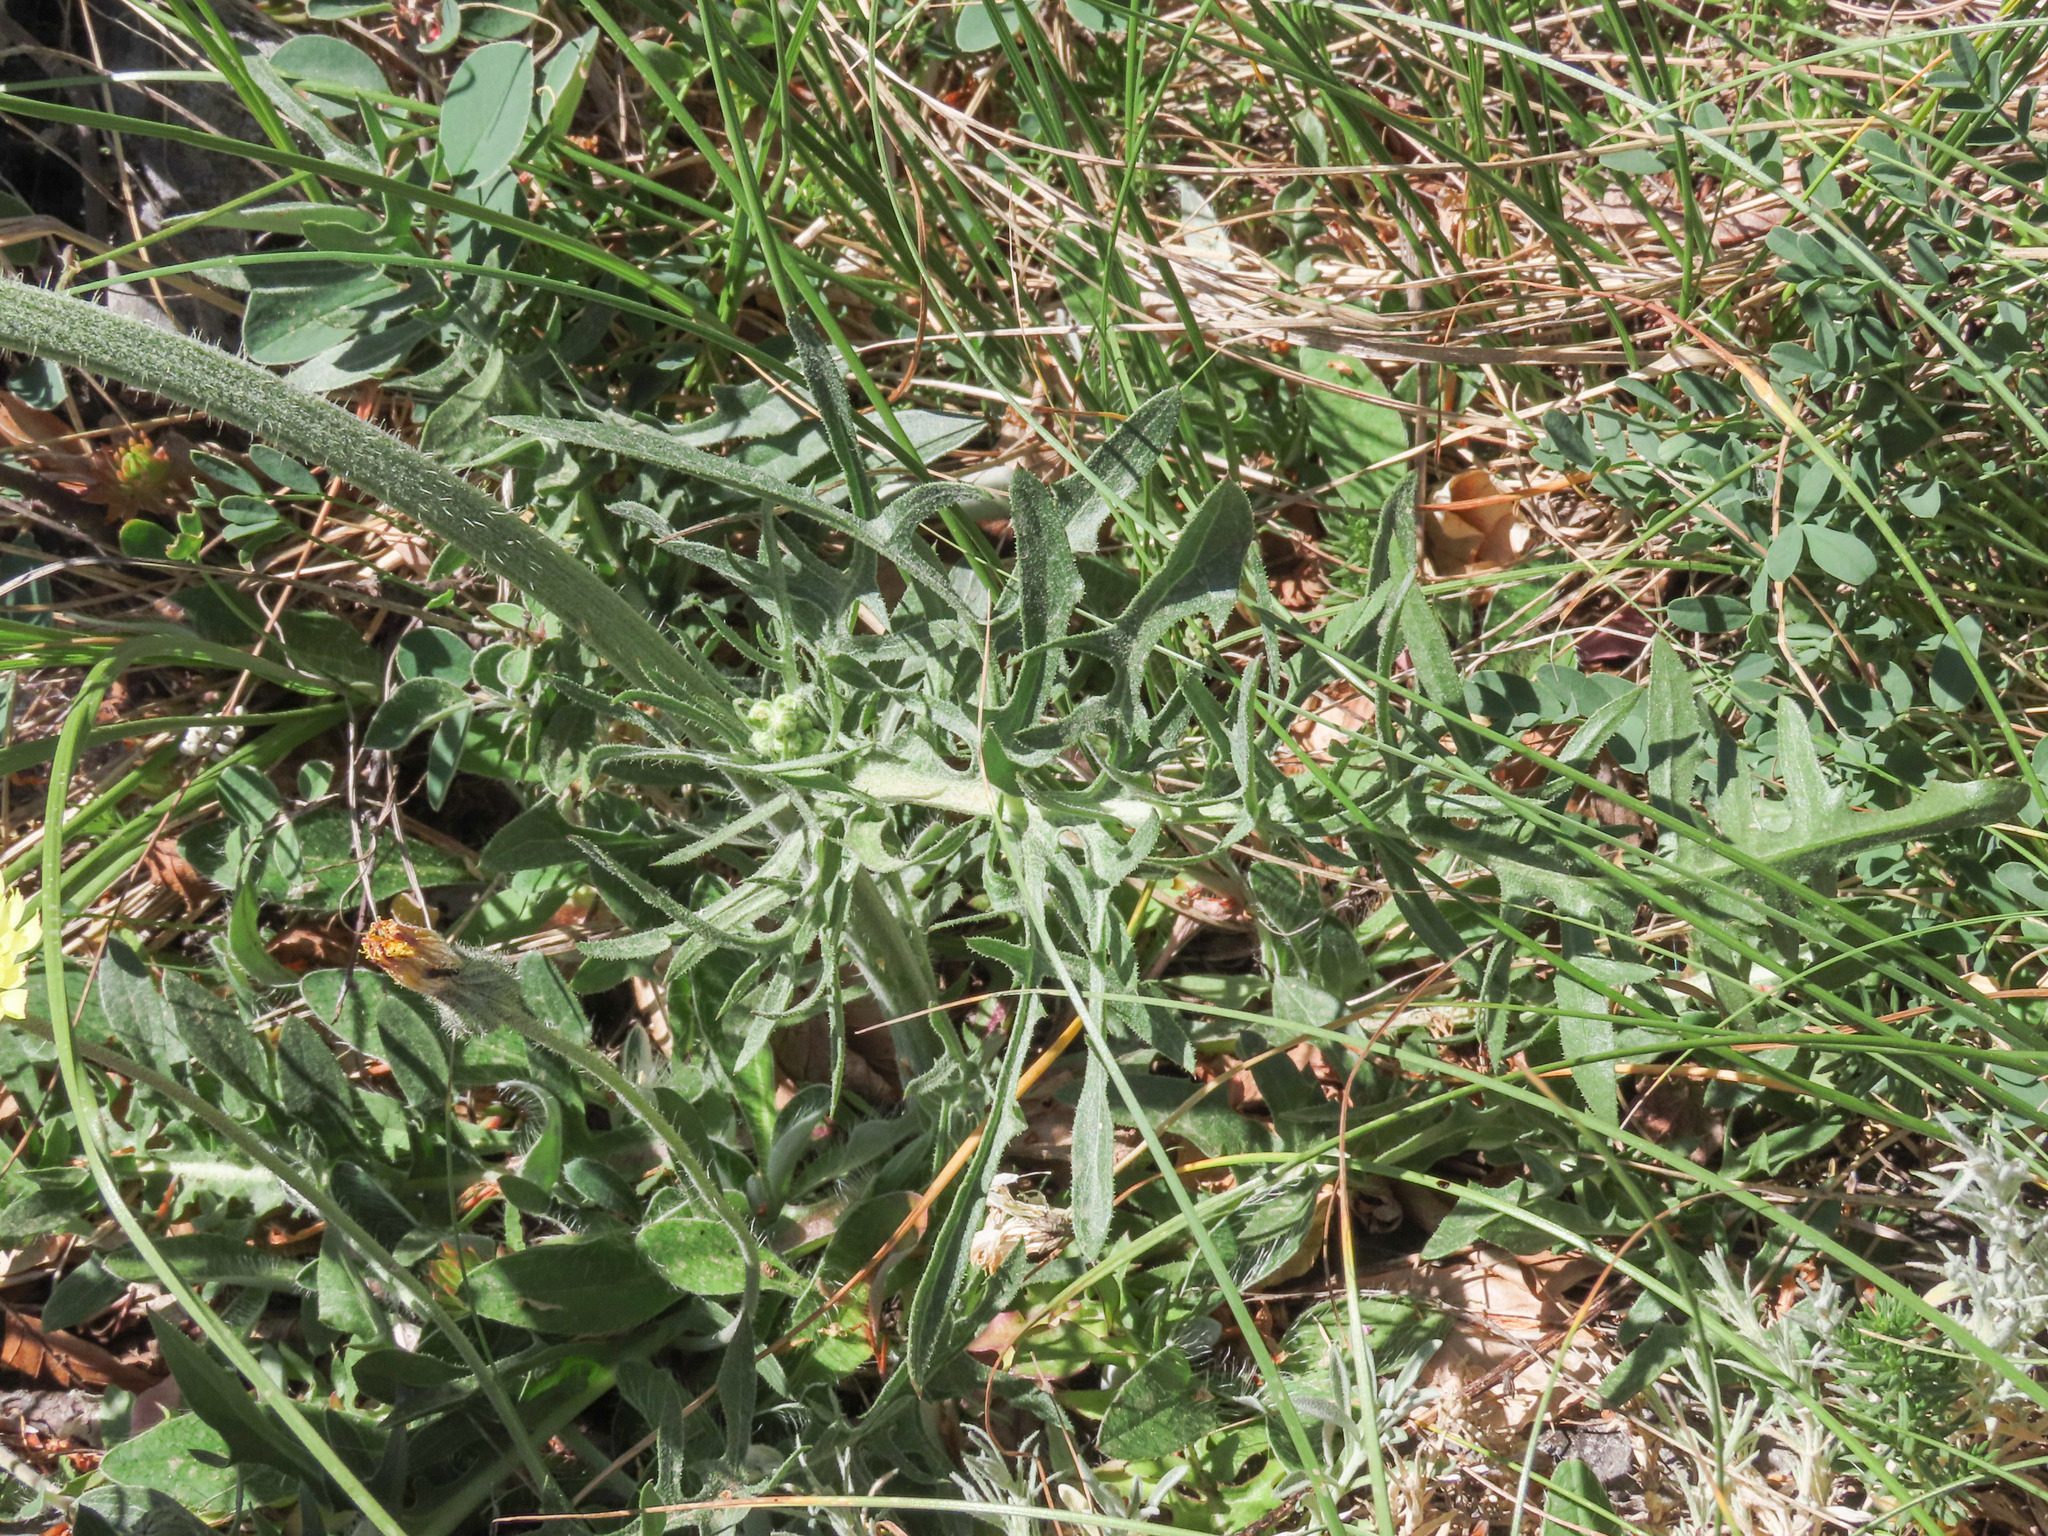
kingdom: Plantae
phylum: Tracheophyta
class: Magnoliopsida
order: Asterales
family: Asteraceae
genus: Crepis
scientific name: Crepis lacera
